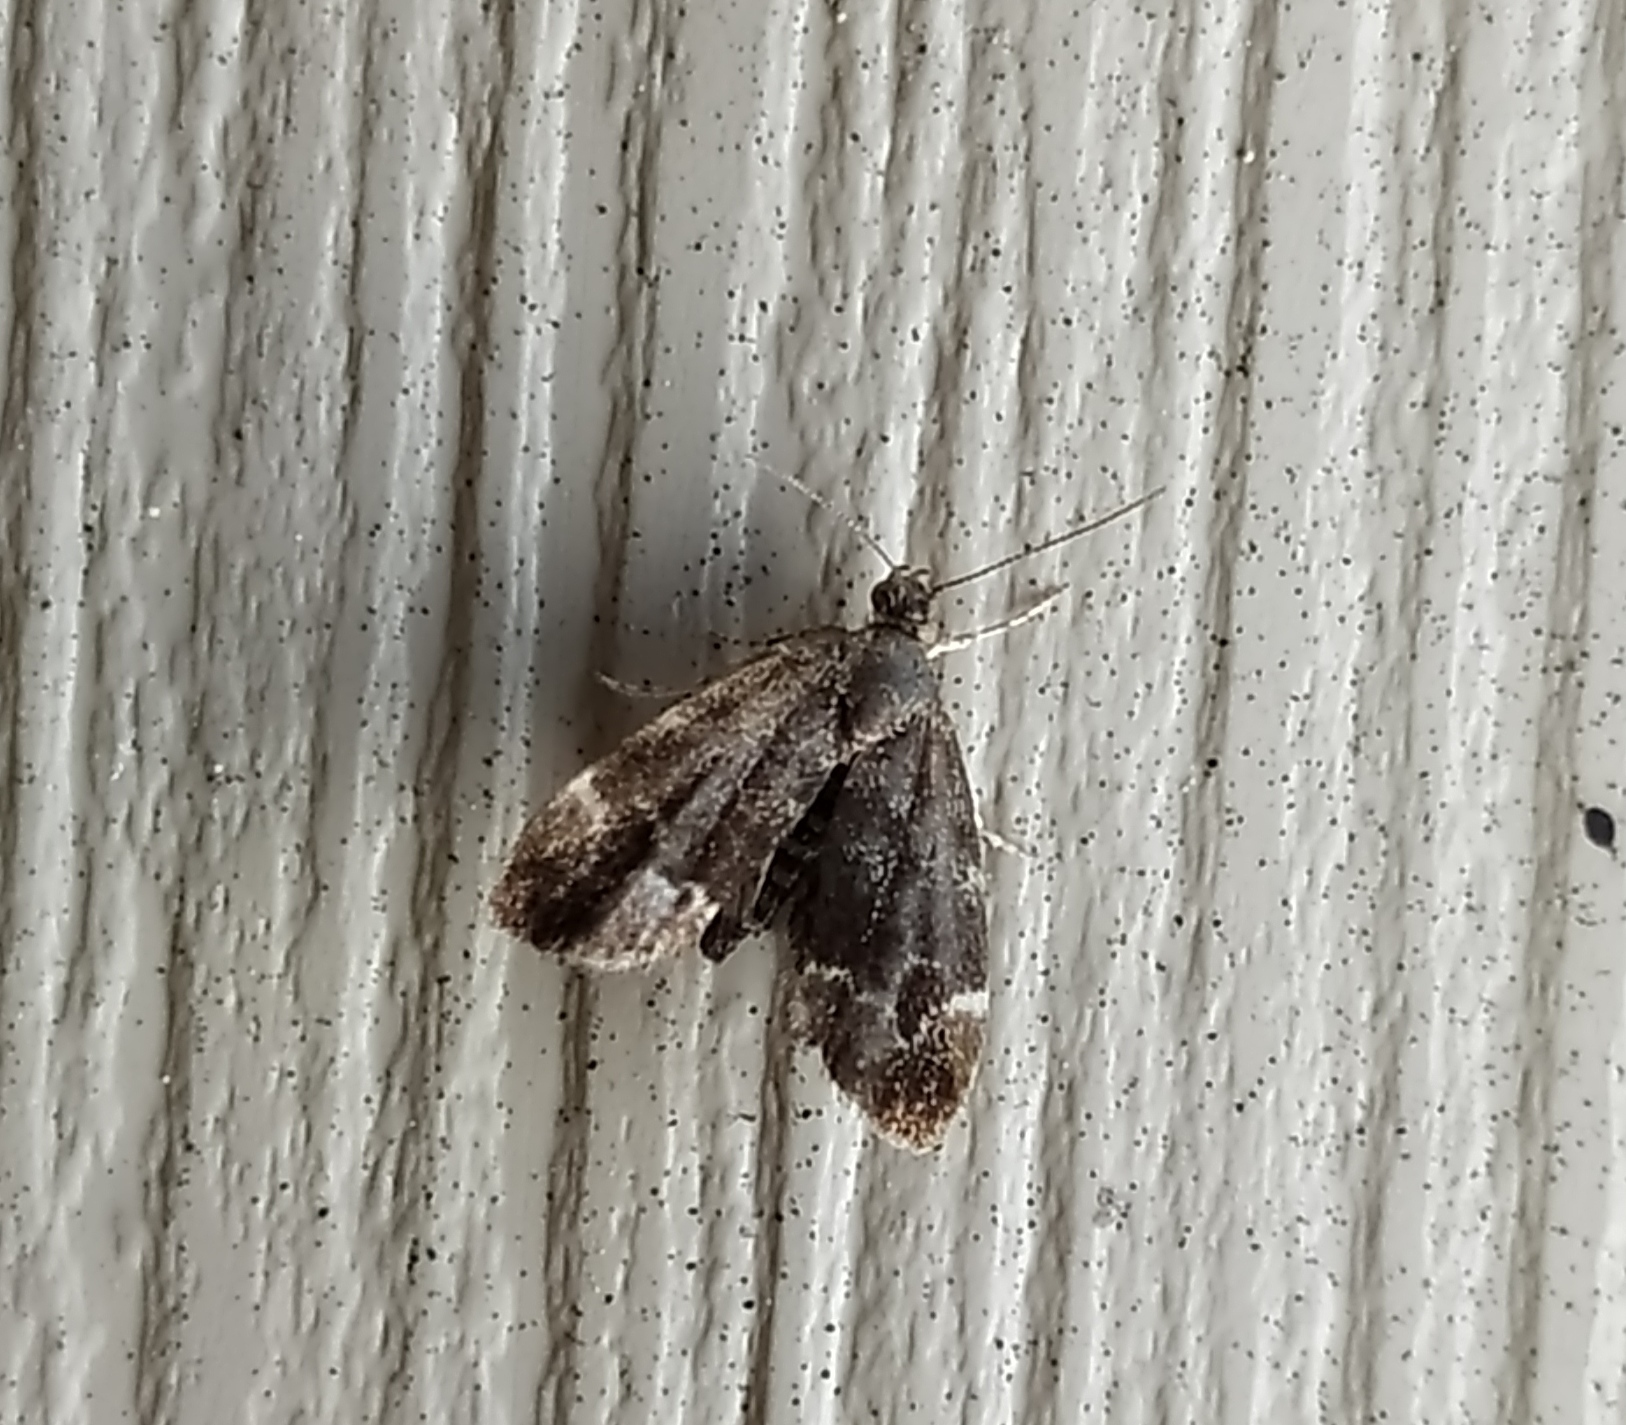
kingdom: Animalia
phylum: Arthropoda
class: Insecta
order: Lepidoptera
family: Choreutidae
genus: Anthophila
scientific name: Anthophila fabriciana
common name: Nettle-tap
